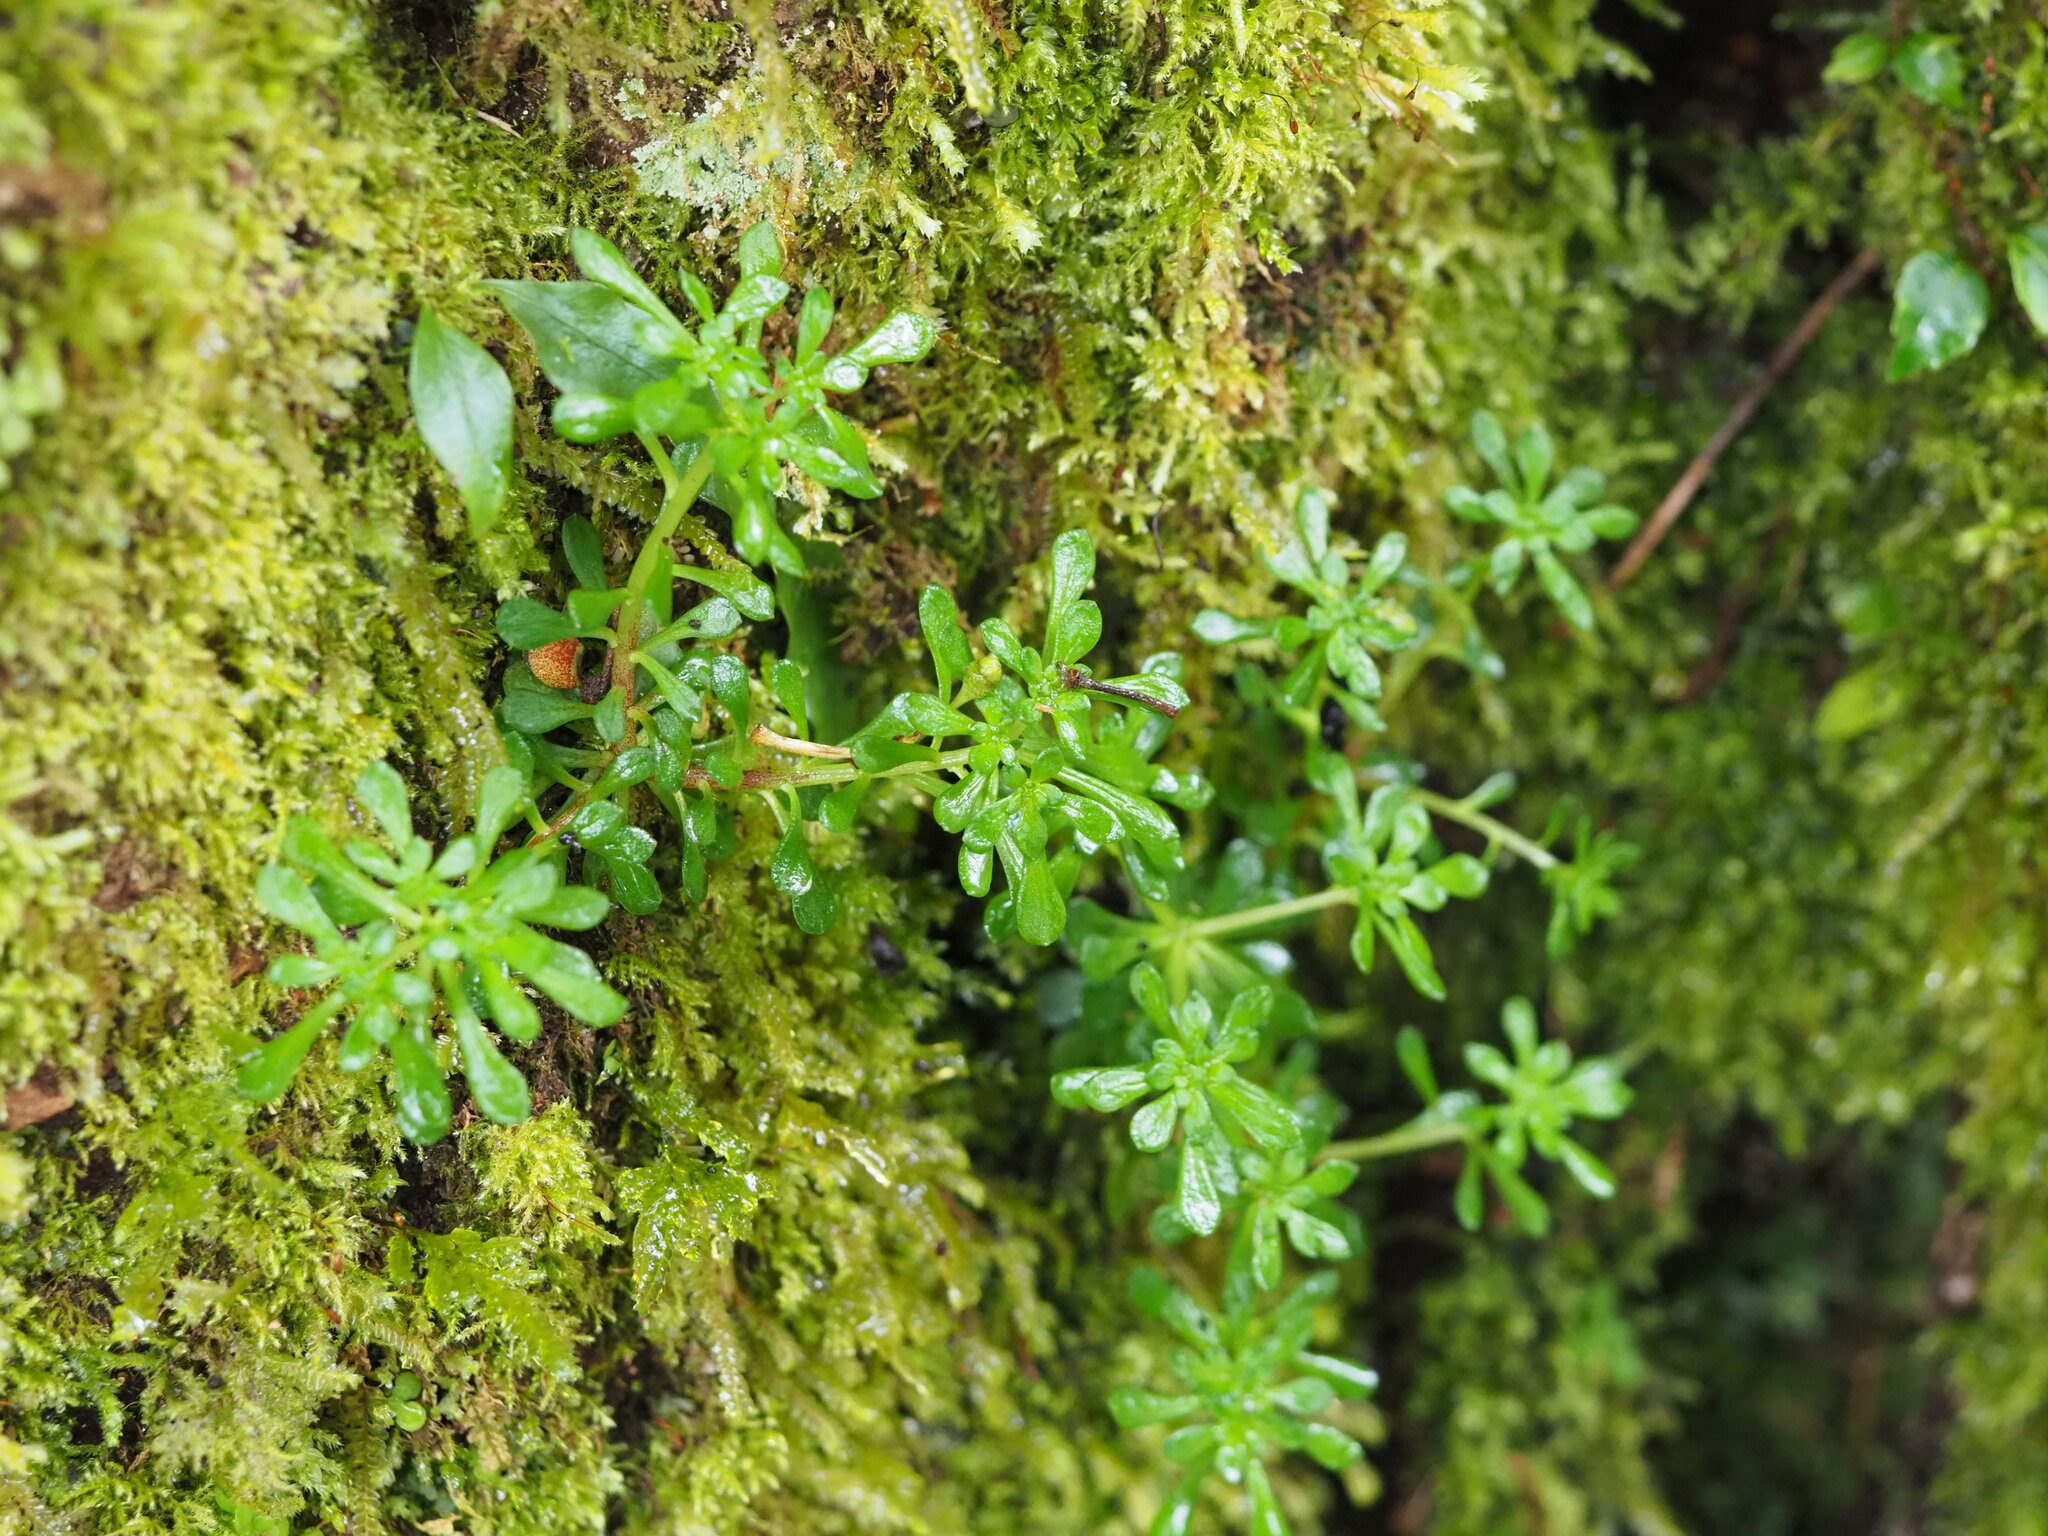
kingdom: Plantae
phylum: Tracheophyta
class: Magnoliopsida
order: Saxifragales
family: Crassulaceae
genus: Sedum
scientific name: Sedum actinocarpum
